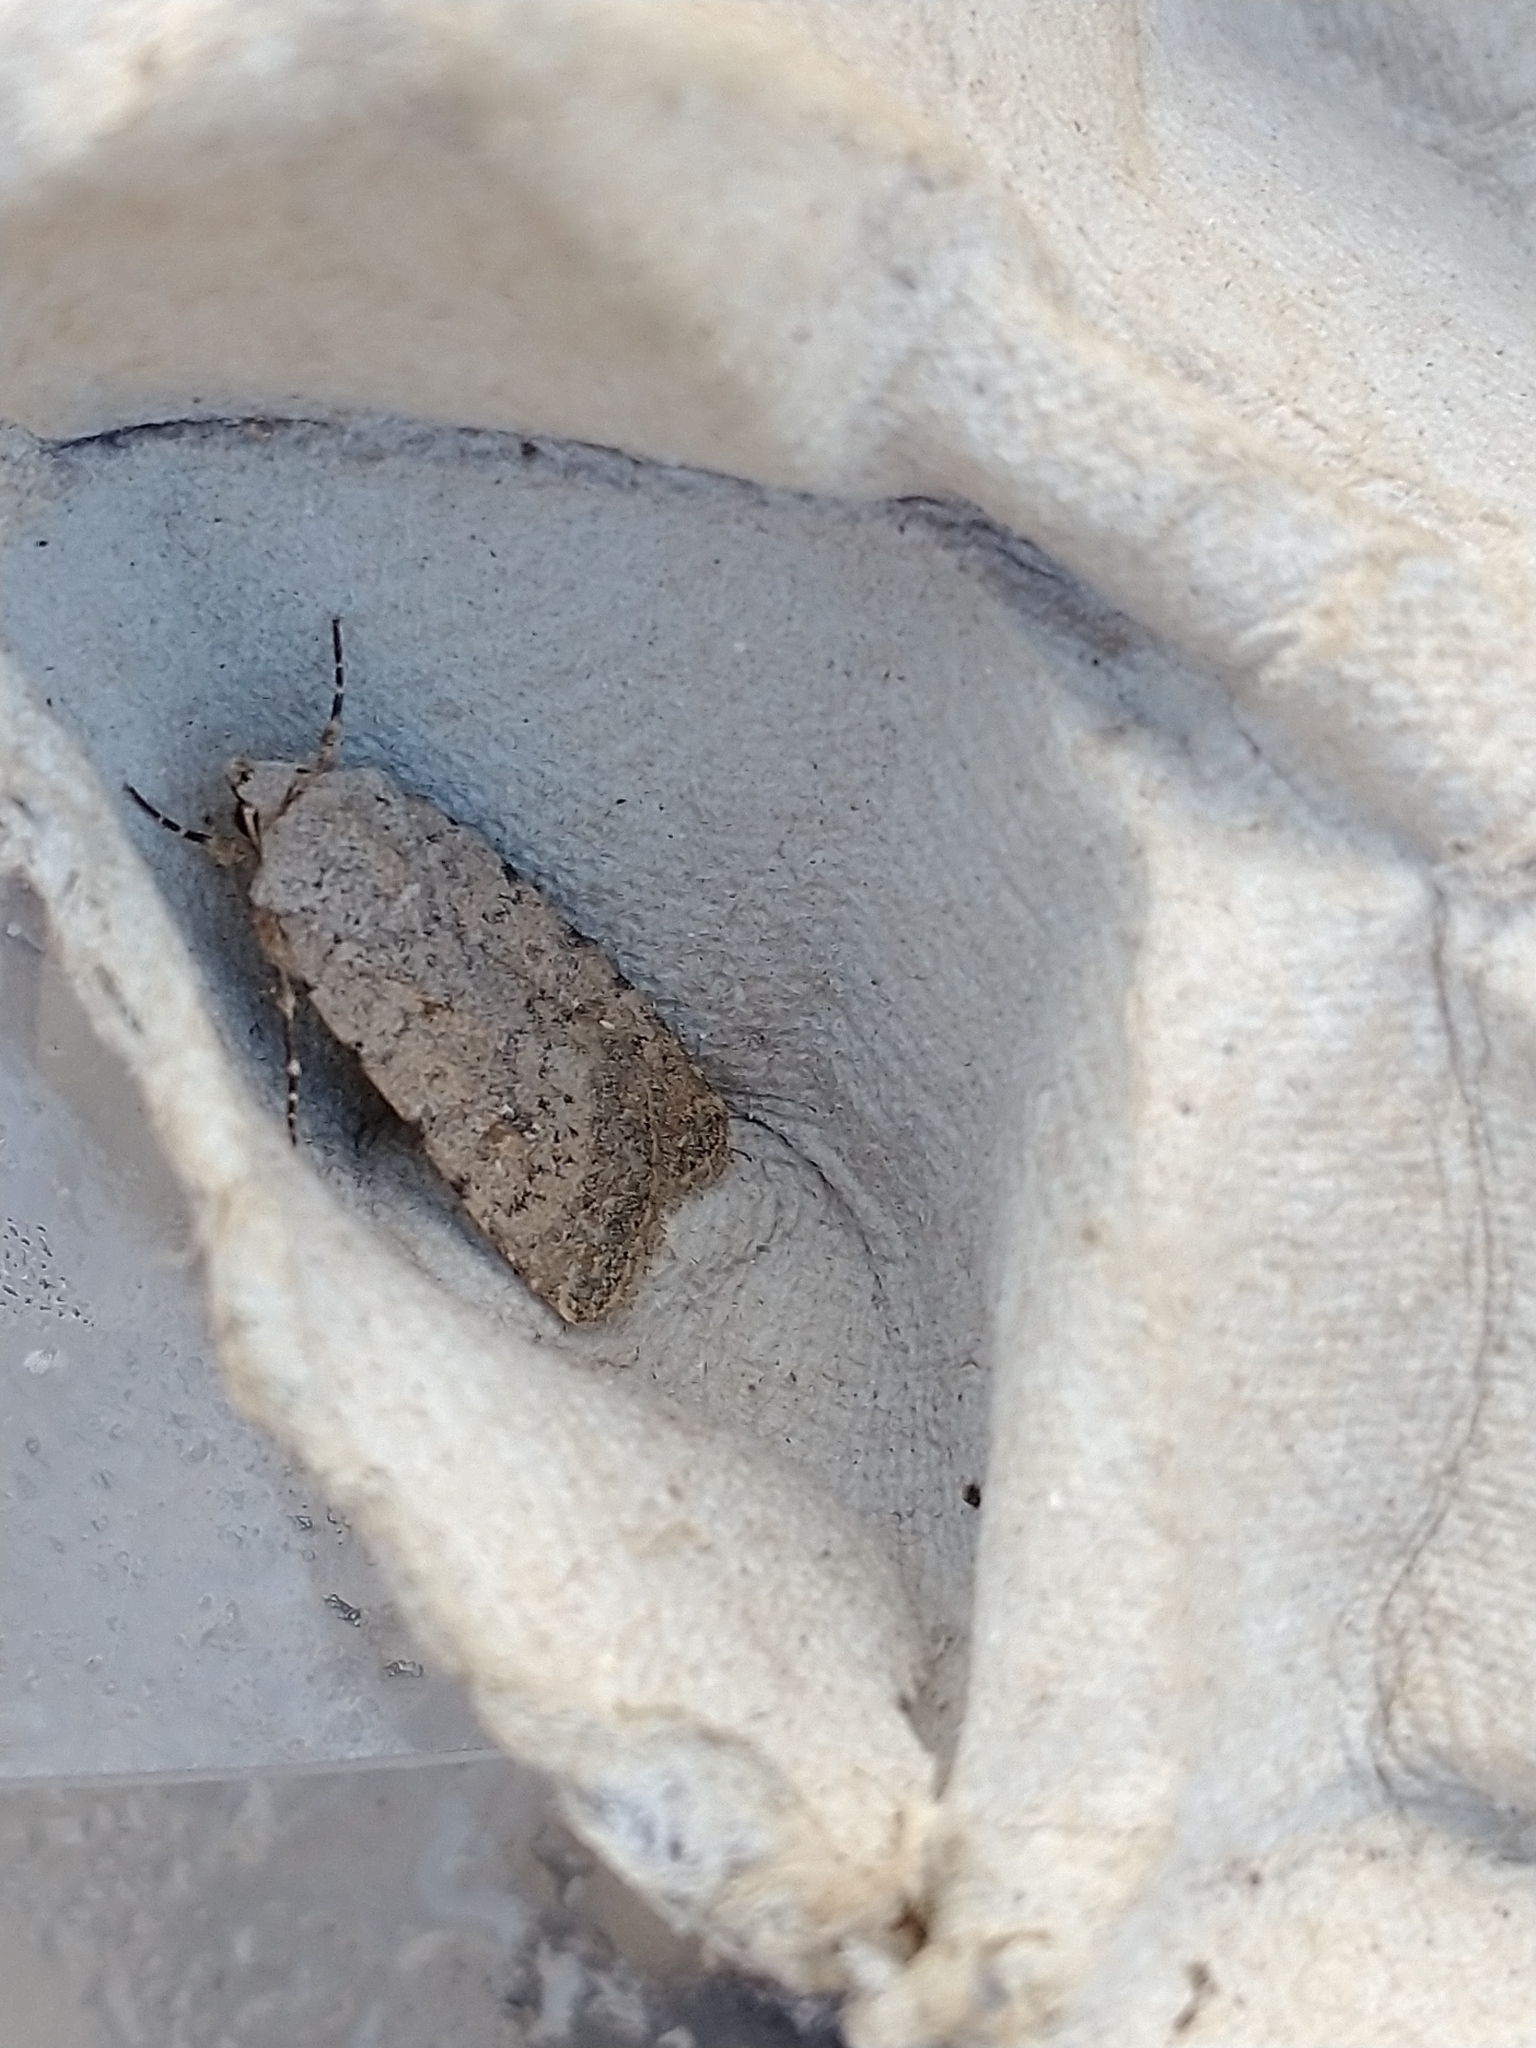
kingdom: Animalia
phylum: Arthropoda
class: Insecta
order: Lepidoptera
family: Noctuidae
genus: Caradrina
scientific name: Caradrina clavipalpis
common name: Pale mottled willow
